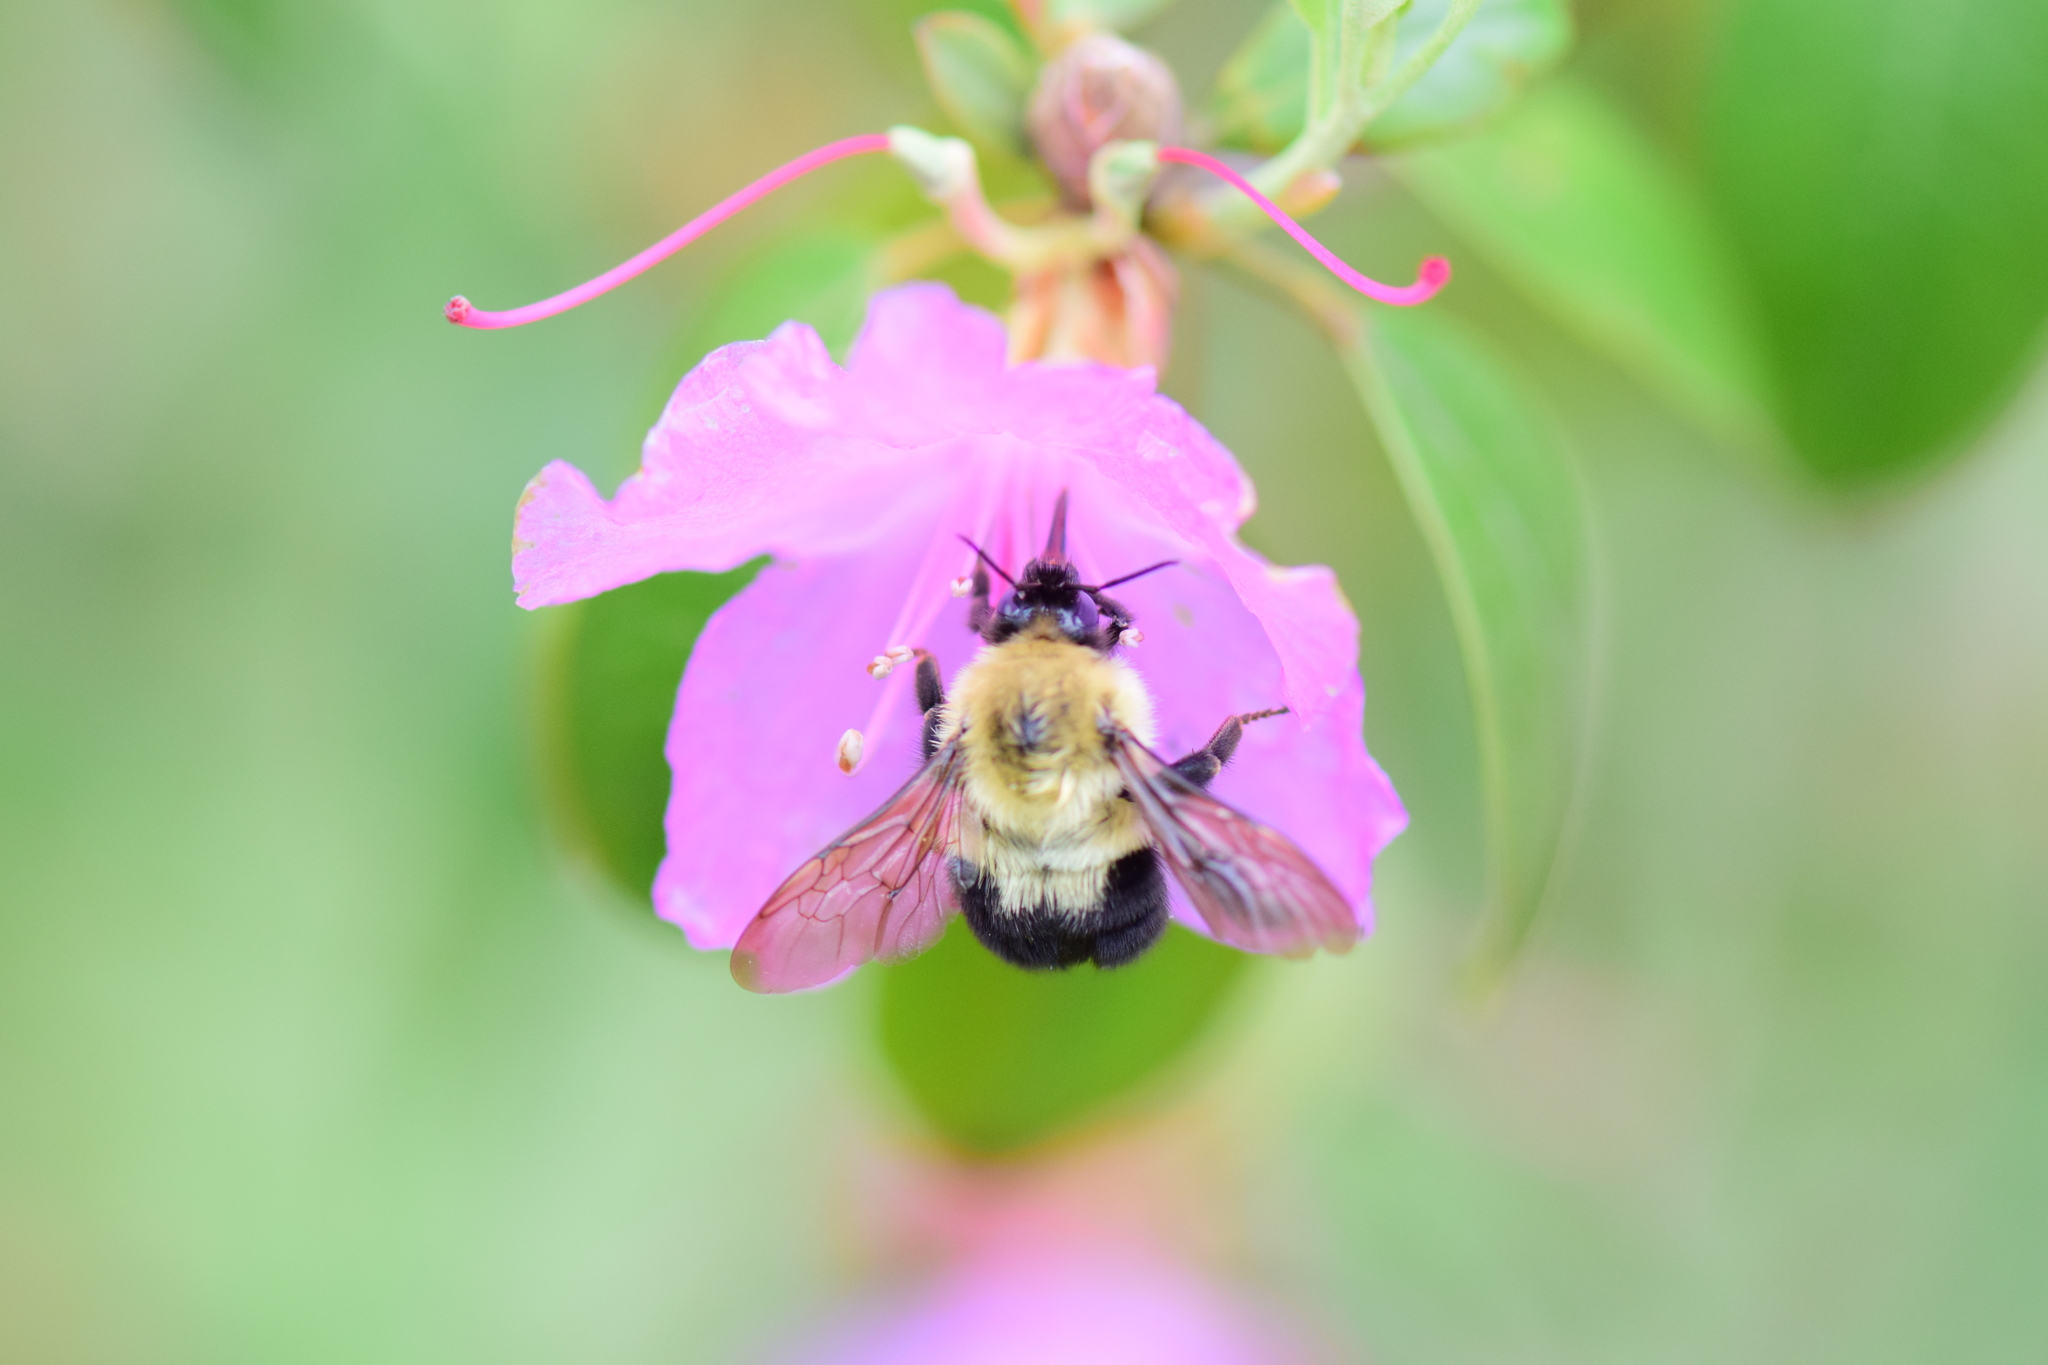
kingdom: Animalia
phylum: Arthropoda
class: Insecta
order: Hymenoptera
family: Apidae
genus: Bombus
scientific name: Bombus bimaculatus
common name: Two-spotted bumble bee
